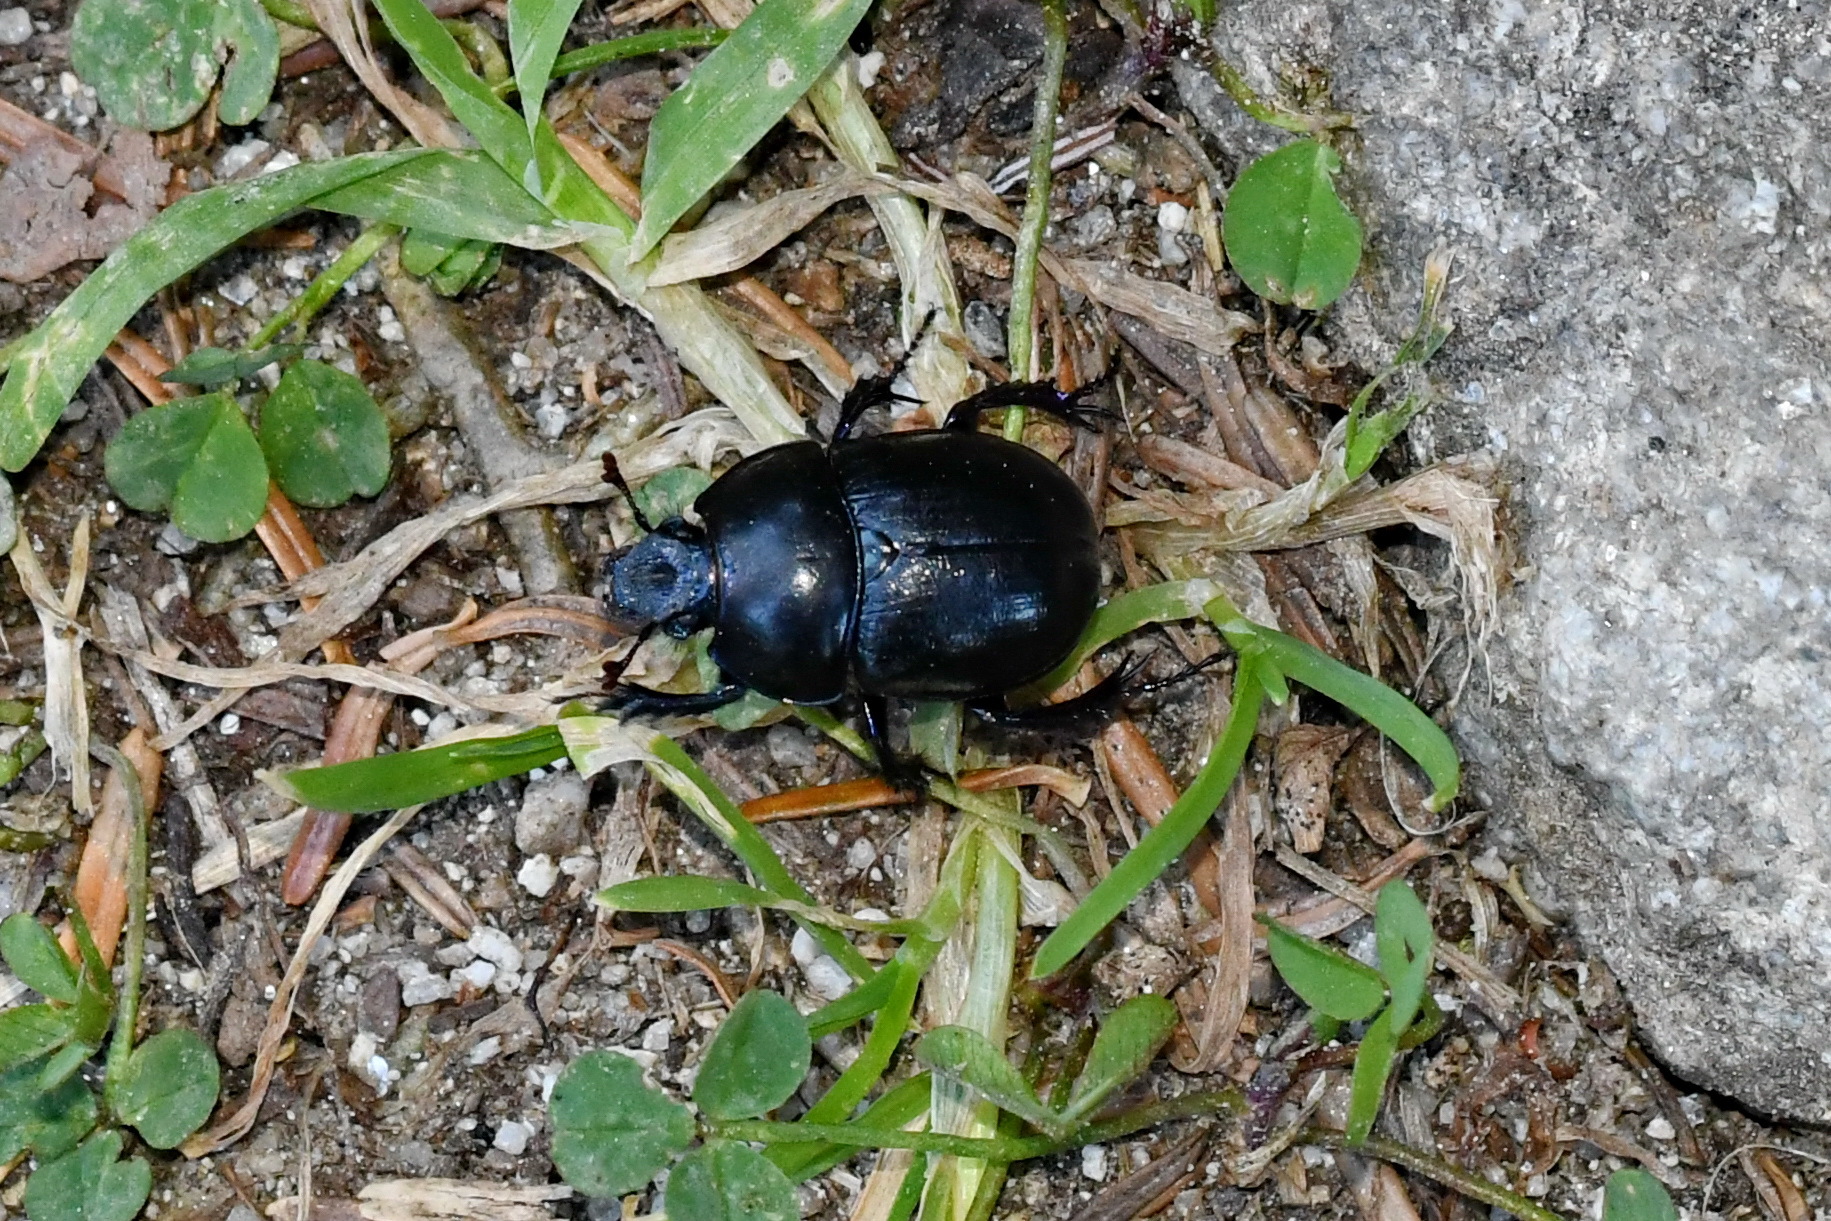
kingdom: Animalia
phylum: Arthropoda
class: Insecta
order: Coleoptera
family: Geotrupidae
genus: Anoplotrupes
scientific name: Anoplotrupes stercorosus
